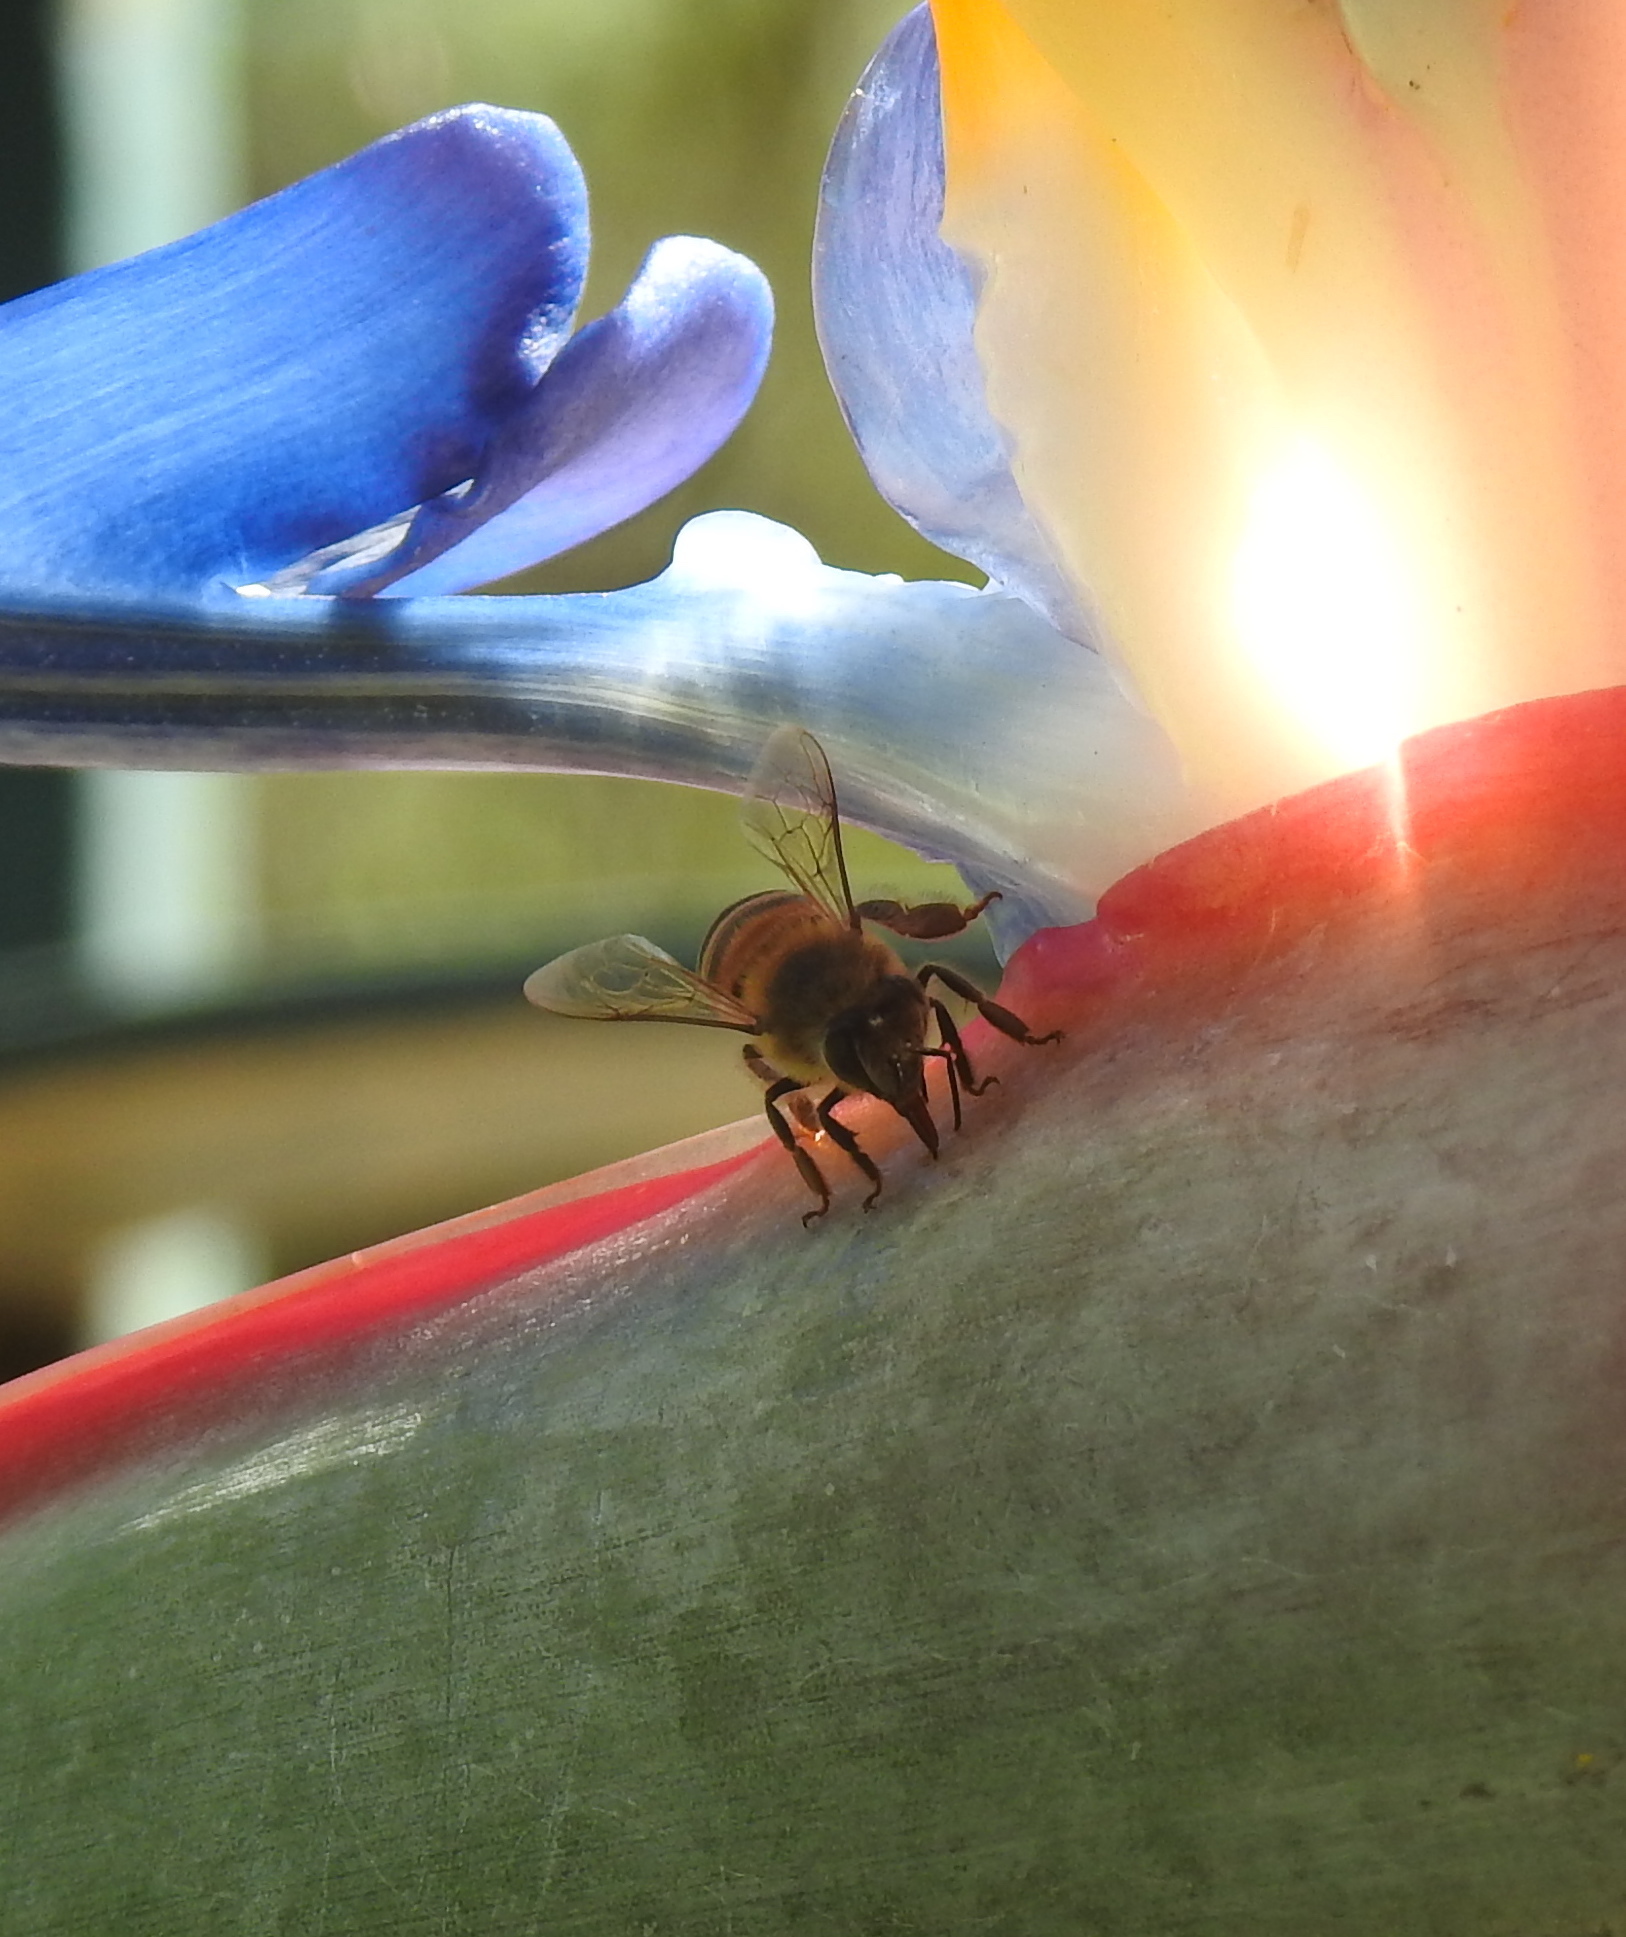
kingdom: Animalia
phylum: Arthropoda
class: Insecta
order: Hymenoptera
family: Apidae
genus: Apis
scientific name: Apis mellifera
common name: Honey bee
